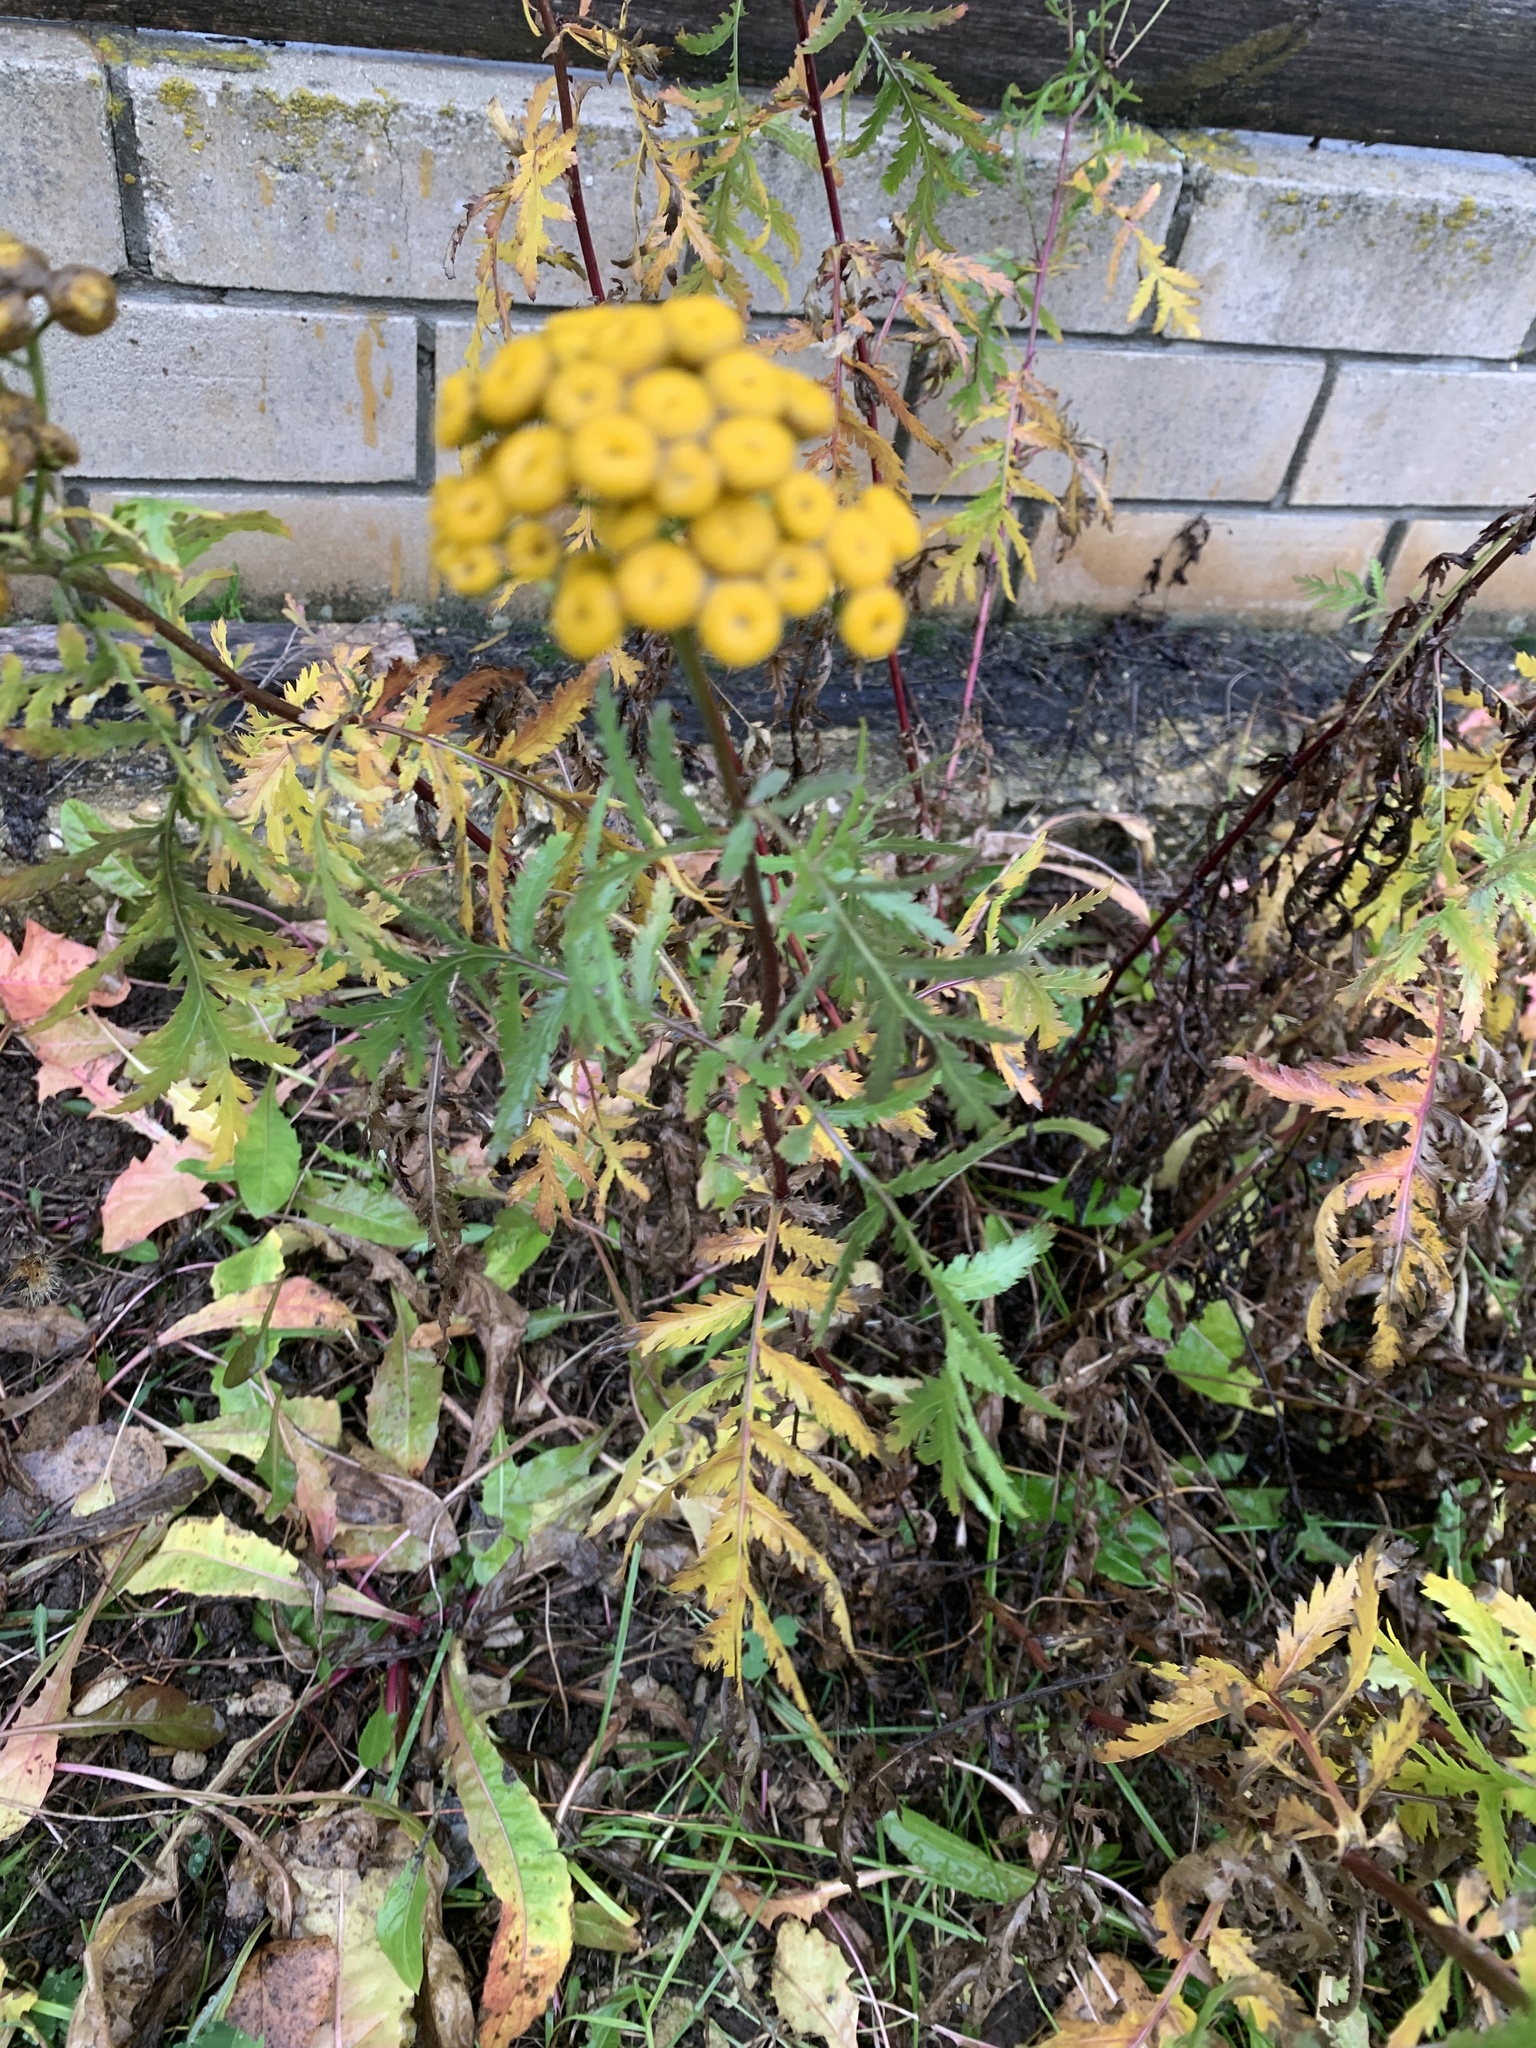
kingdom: Plantae
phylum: Tracheophyta
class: Magnoliopsida
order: Asterales
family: Asteraceae
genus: Tanacetum
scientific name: Tanacetum vulgare
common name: Common tansy
